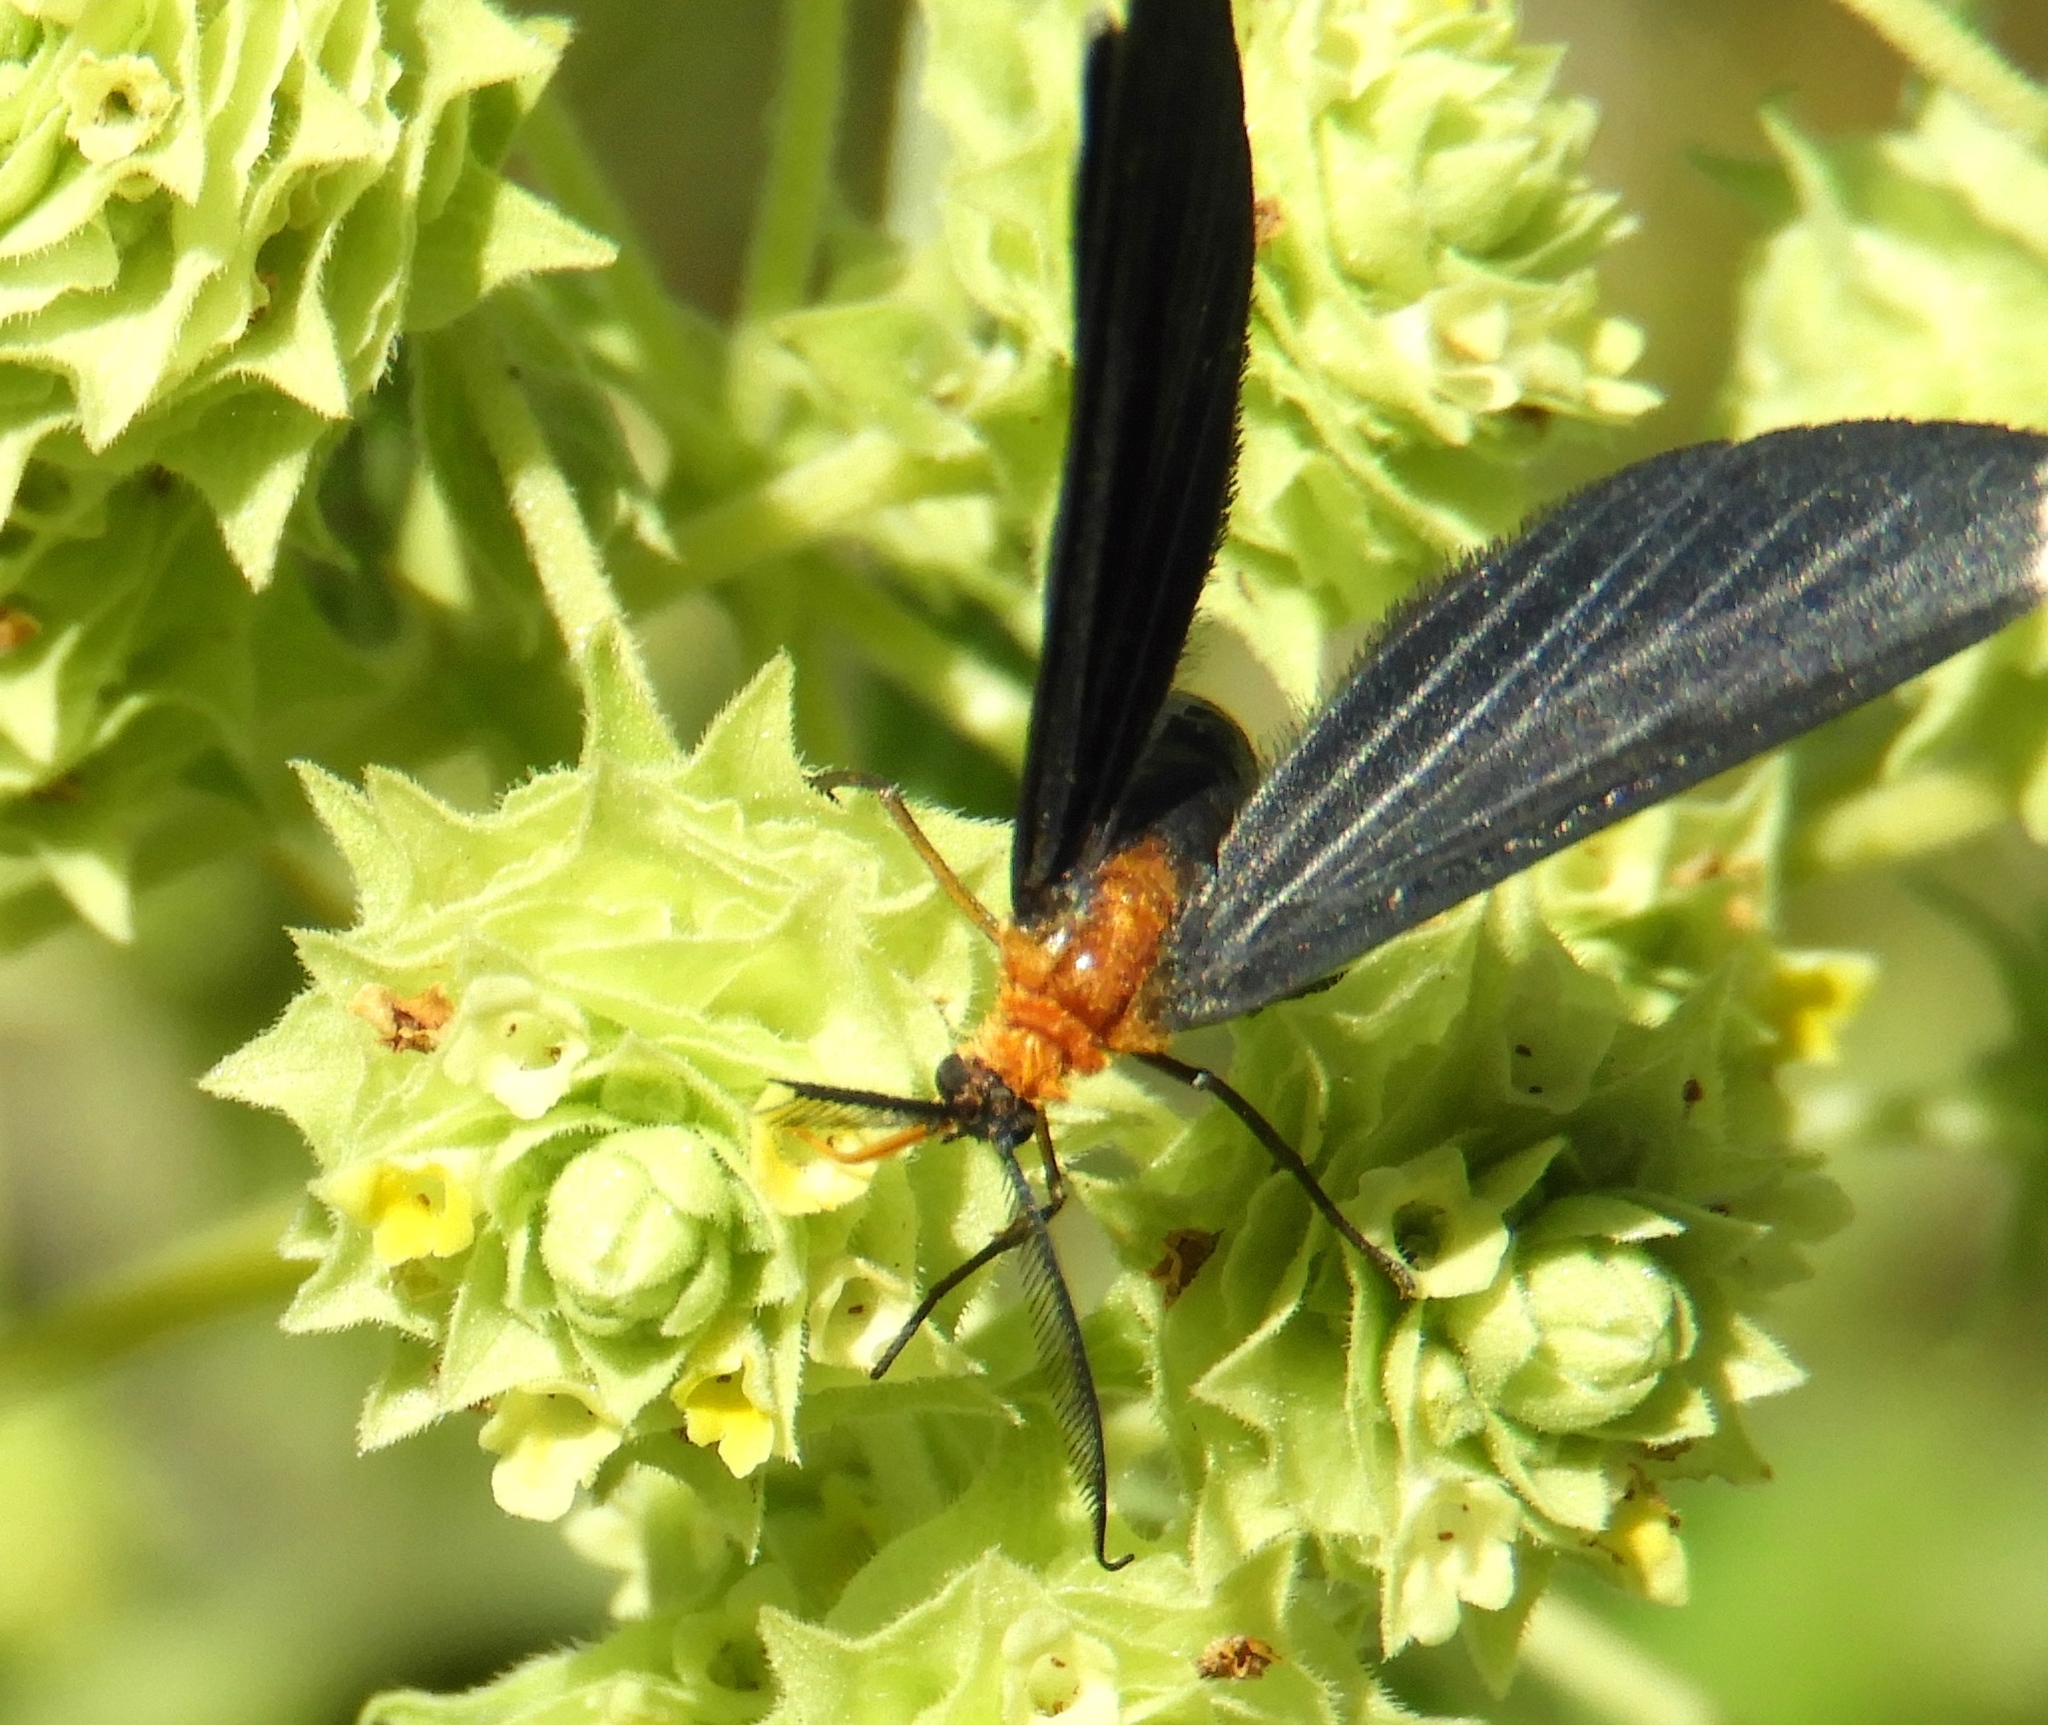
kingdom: Animalia
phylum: Arthropoda
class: Insecta
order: Lepidoptera
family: Geometridae
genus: Melanchroia
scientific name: Melanchroia chephise
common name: White-tipped black
